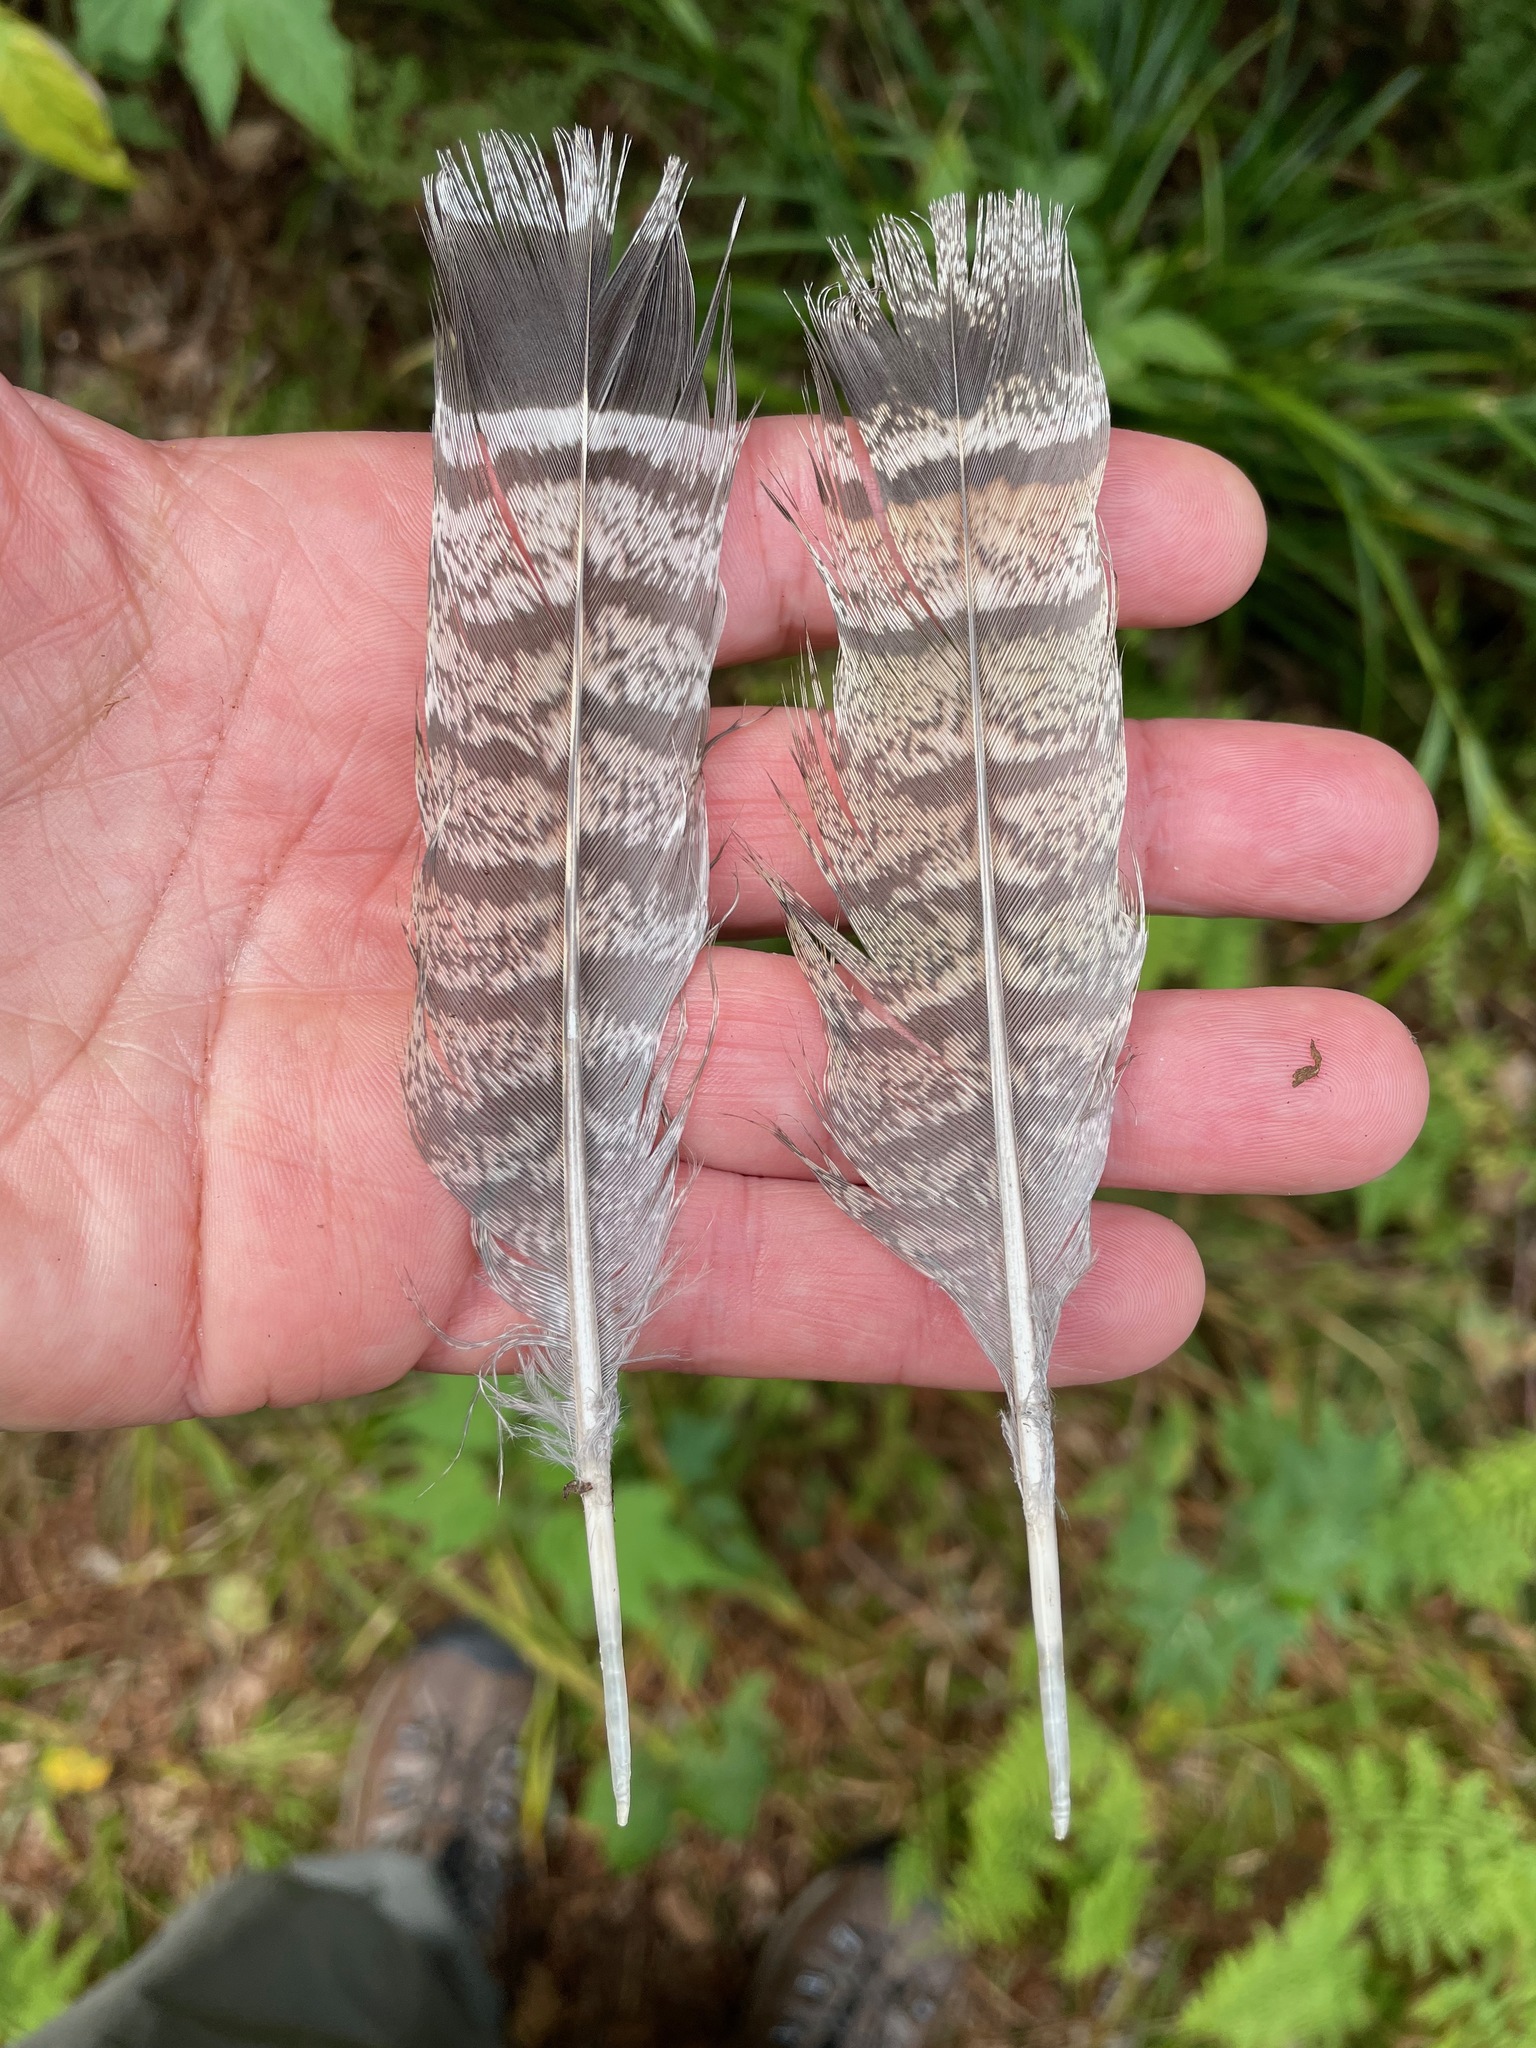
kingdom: Animalia
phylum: Chordata
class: Aves
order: Galliformes
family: Phasianidae
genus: Bonasa
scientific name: Bonasa umbellus
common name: Ruffed grouse
